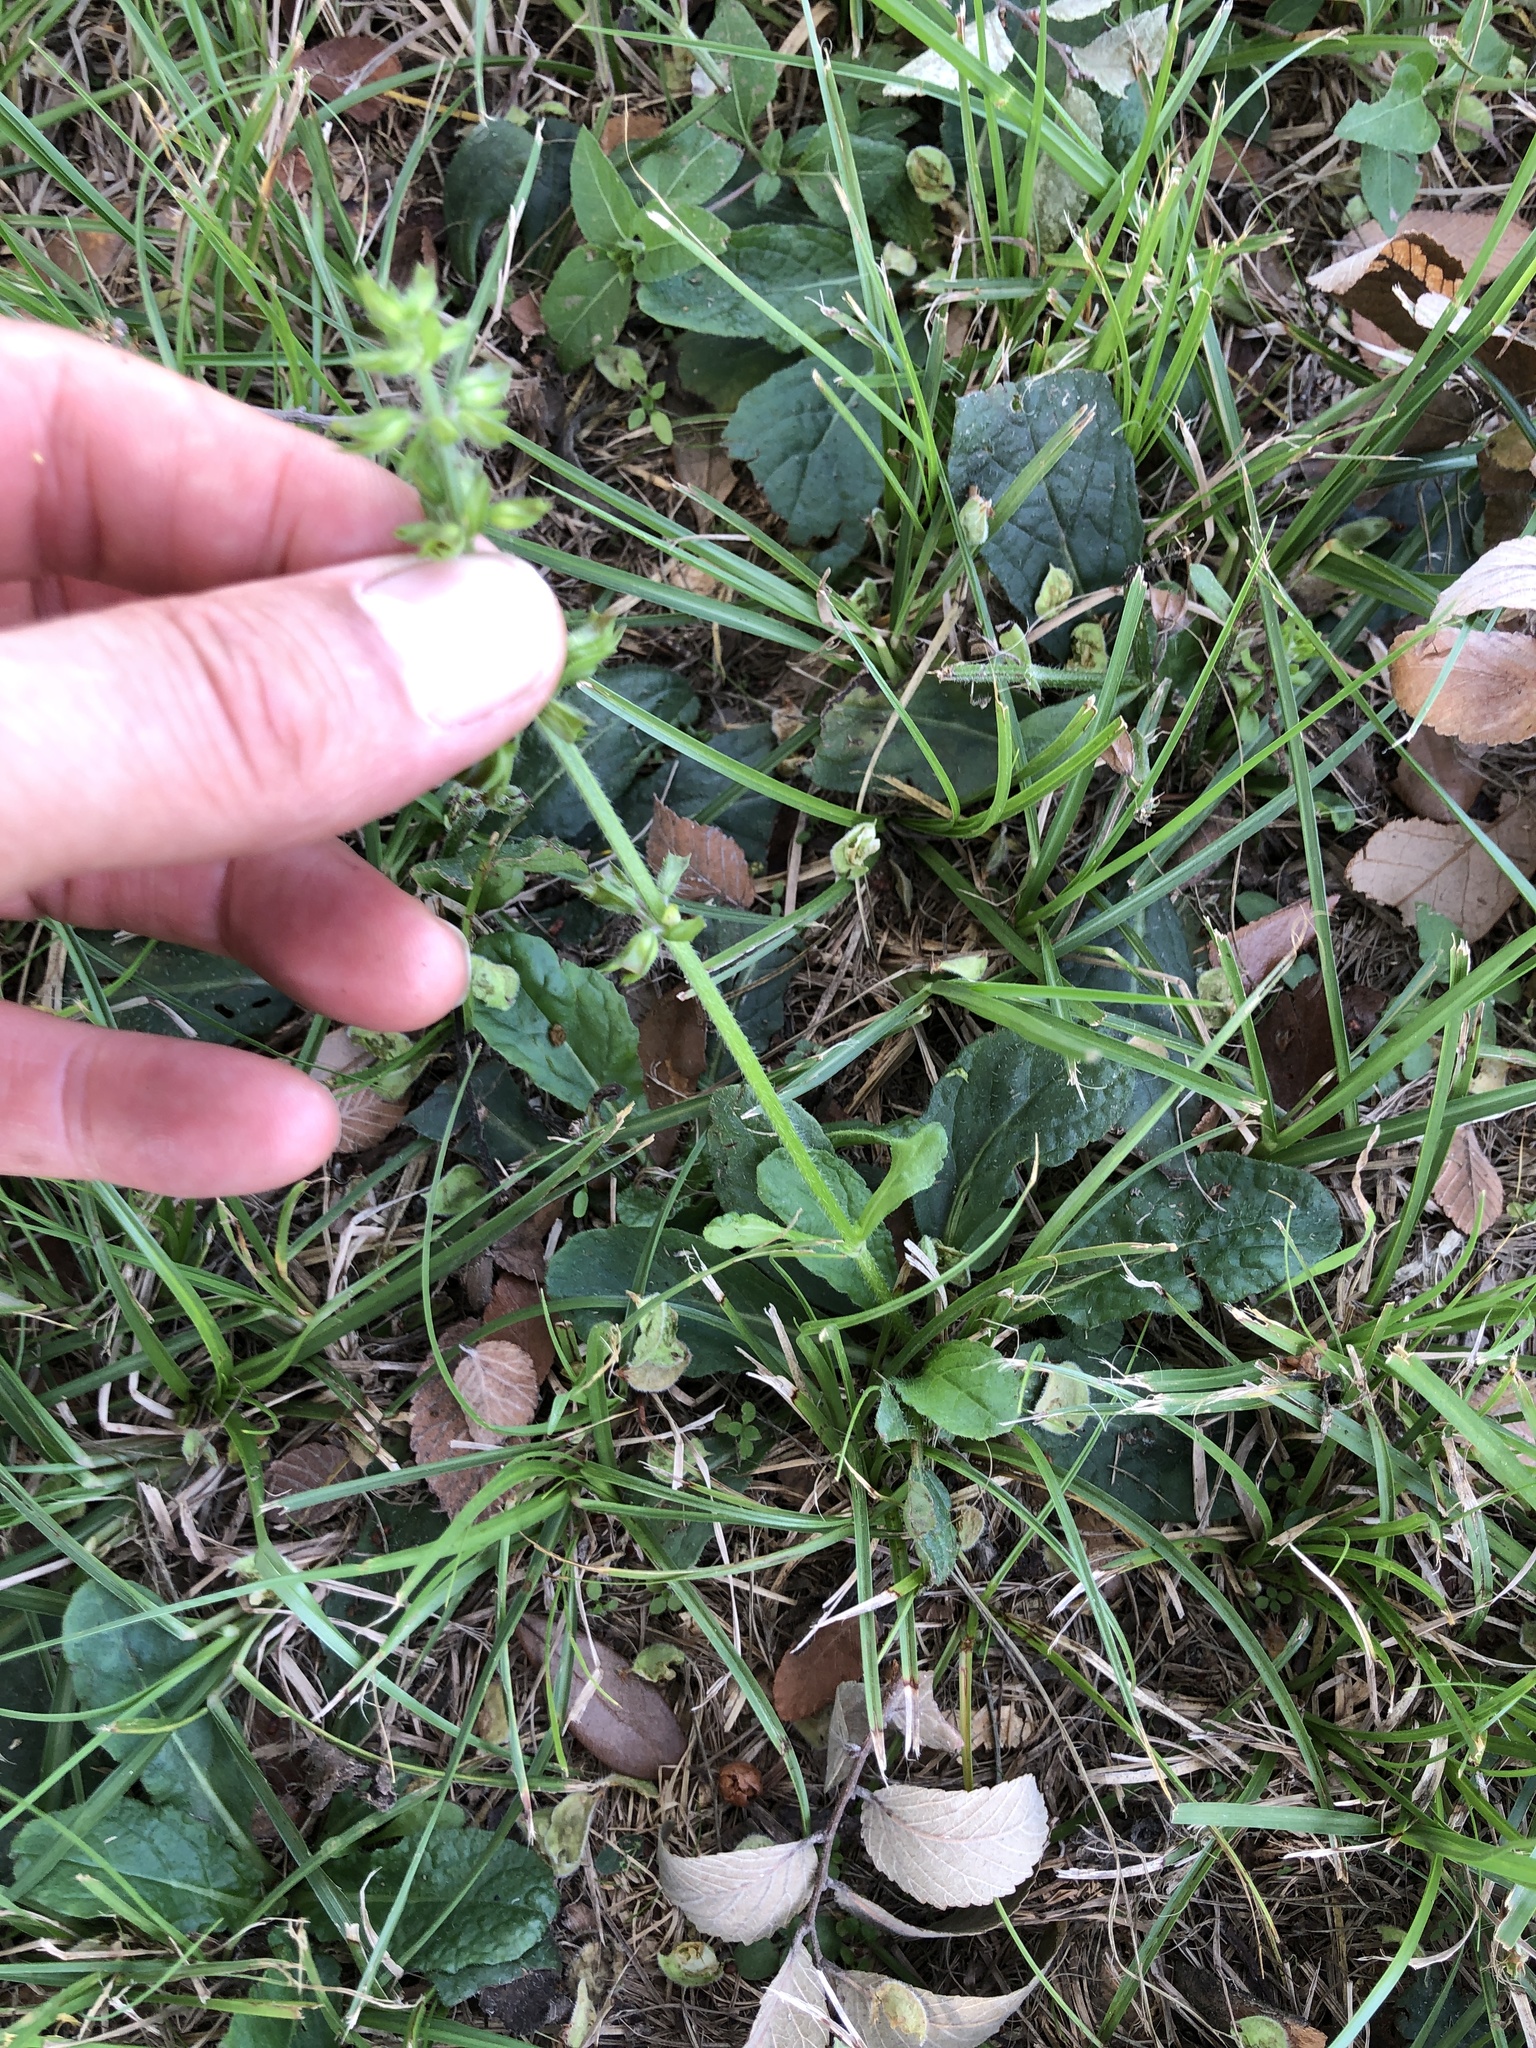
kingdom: Plantae
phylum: Tracheophyta
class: Magnoliopsida
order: Lamiales
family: Lamiaceae
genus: Salvia
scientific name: Salvia lyrata
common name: Cancerweed
